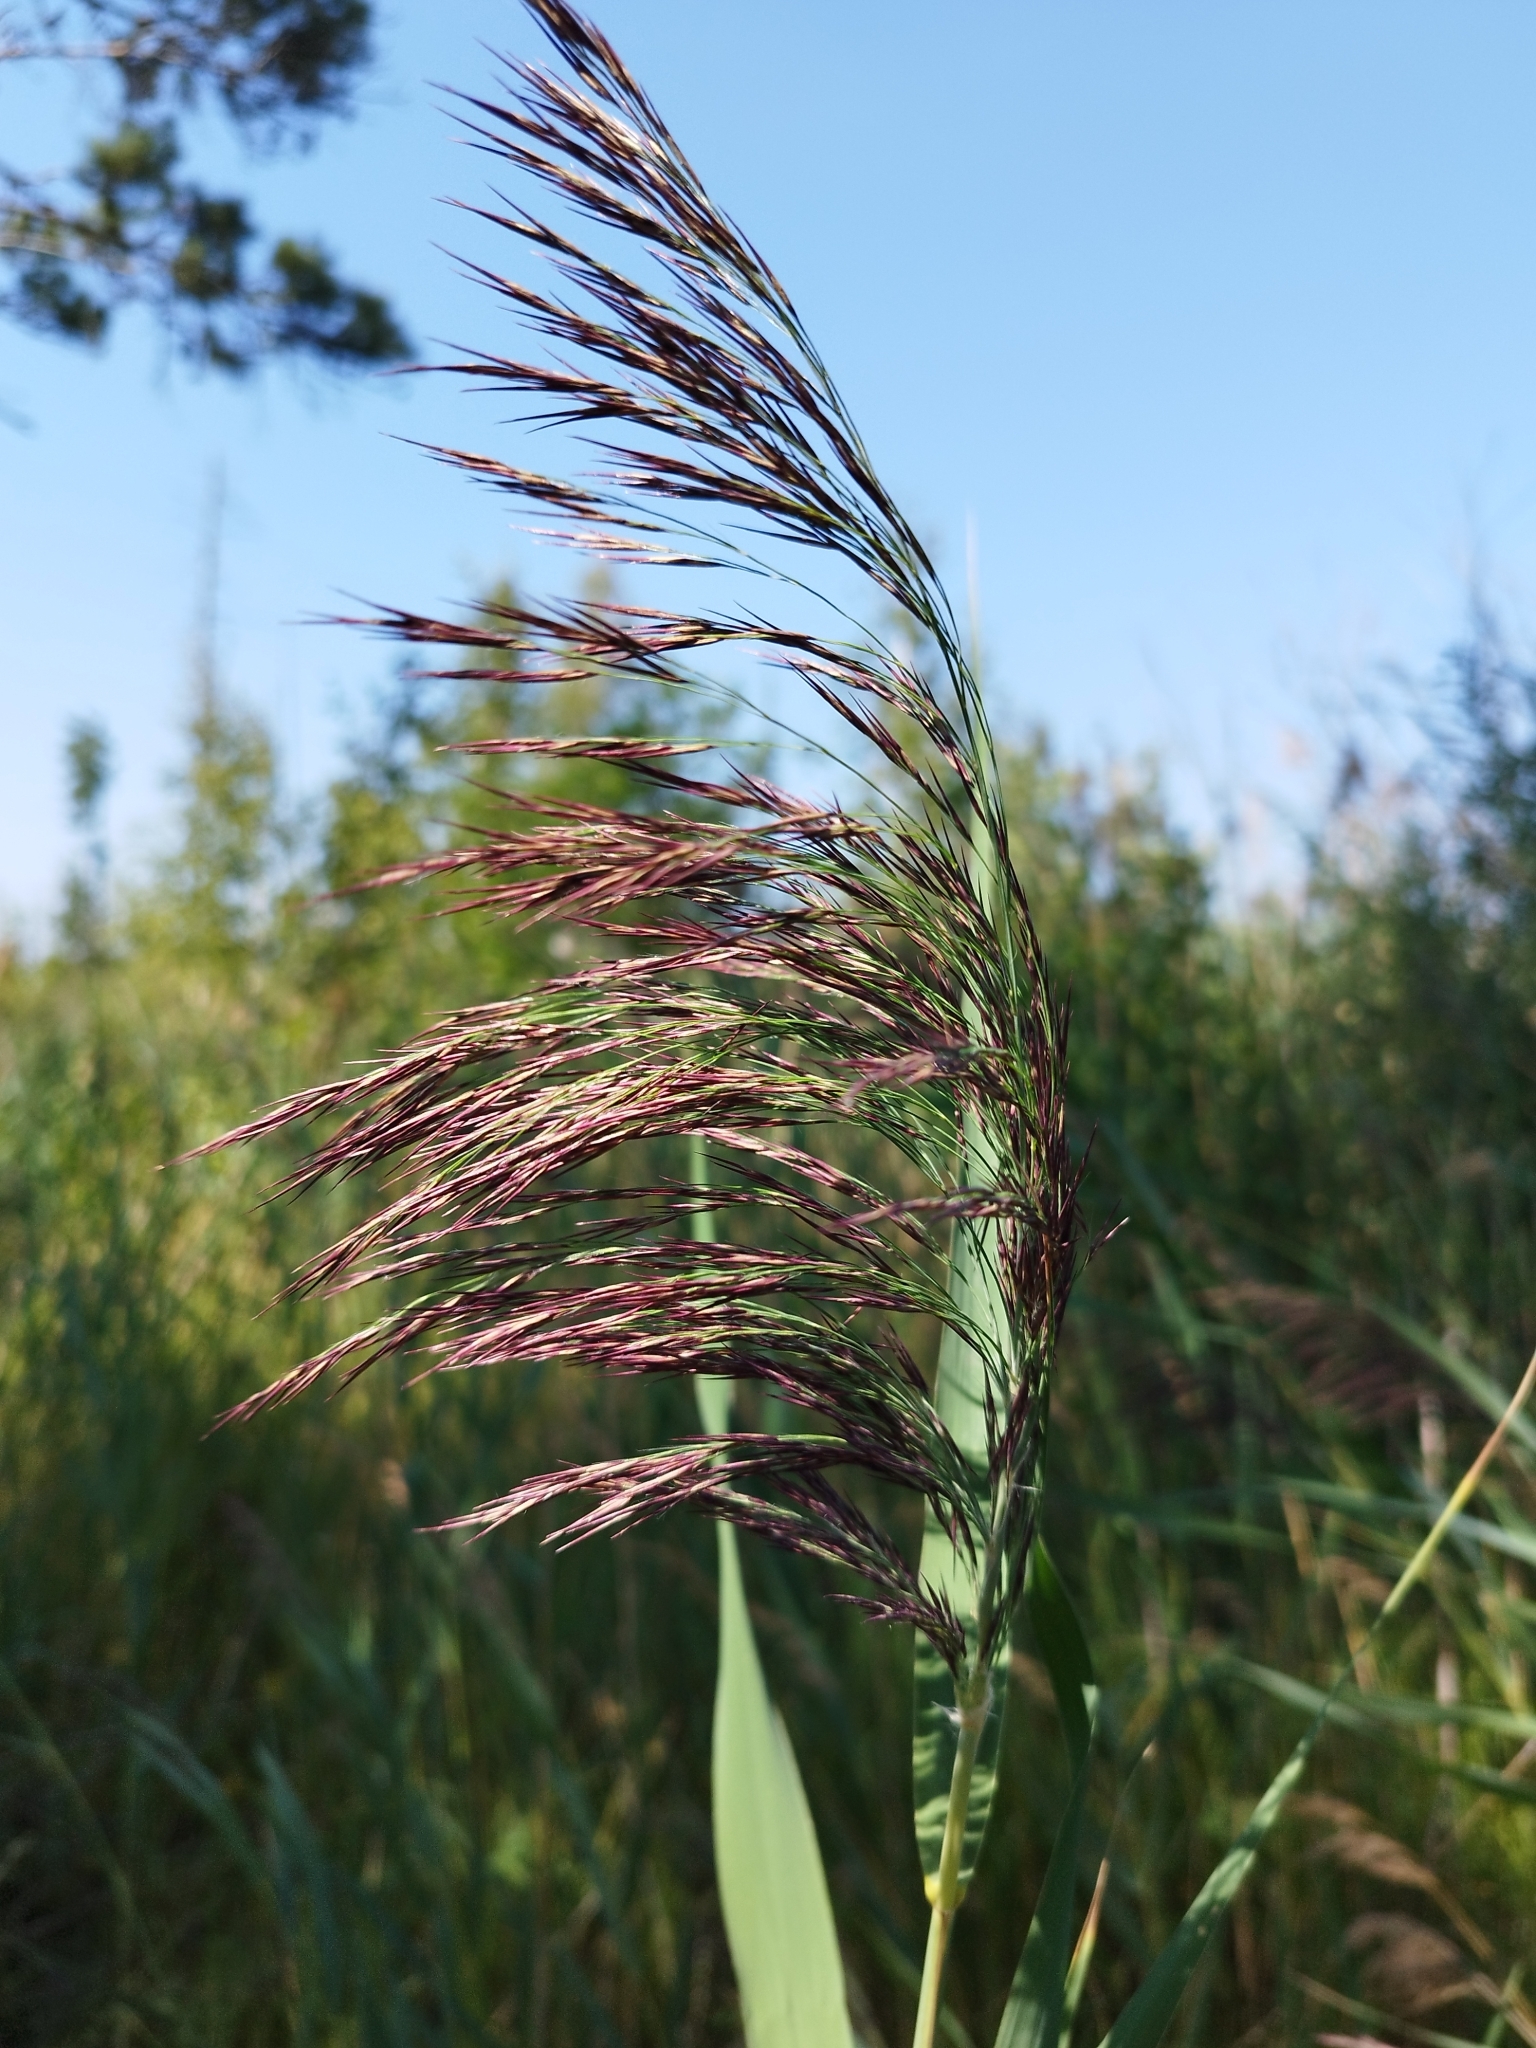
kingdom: Plantae
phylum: Tracheophyta
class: Liliopsida
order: Poales
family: Poaceae
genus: Phragmites
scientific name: Phragmites australis
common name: Common reed
